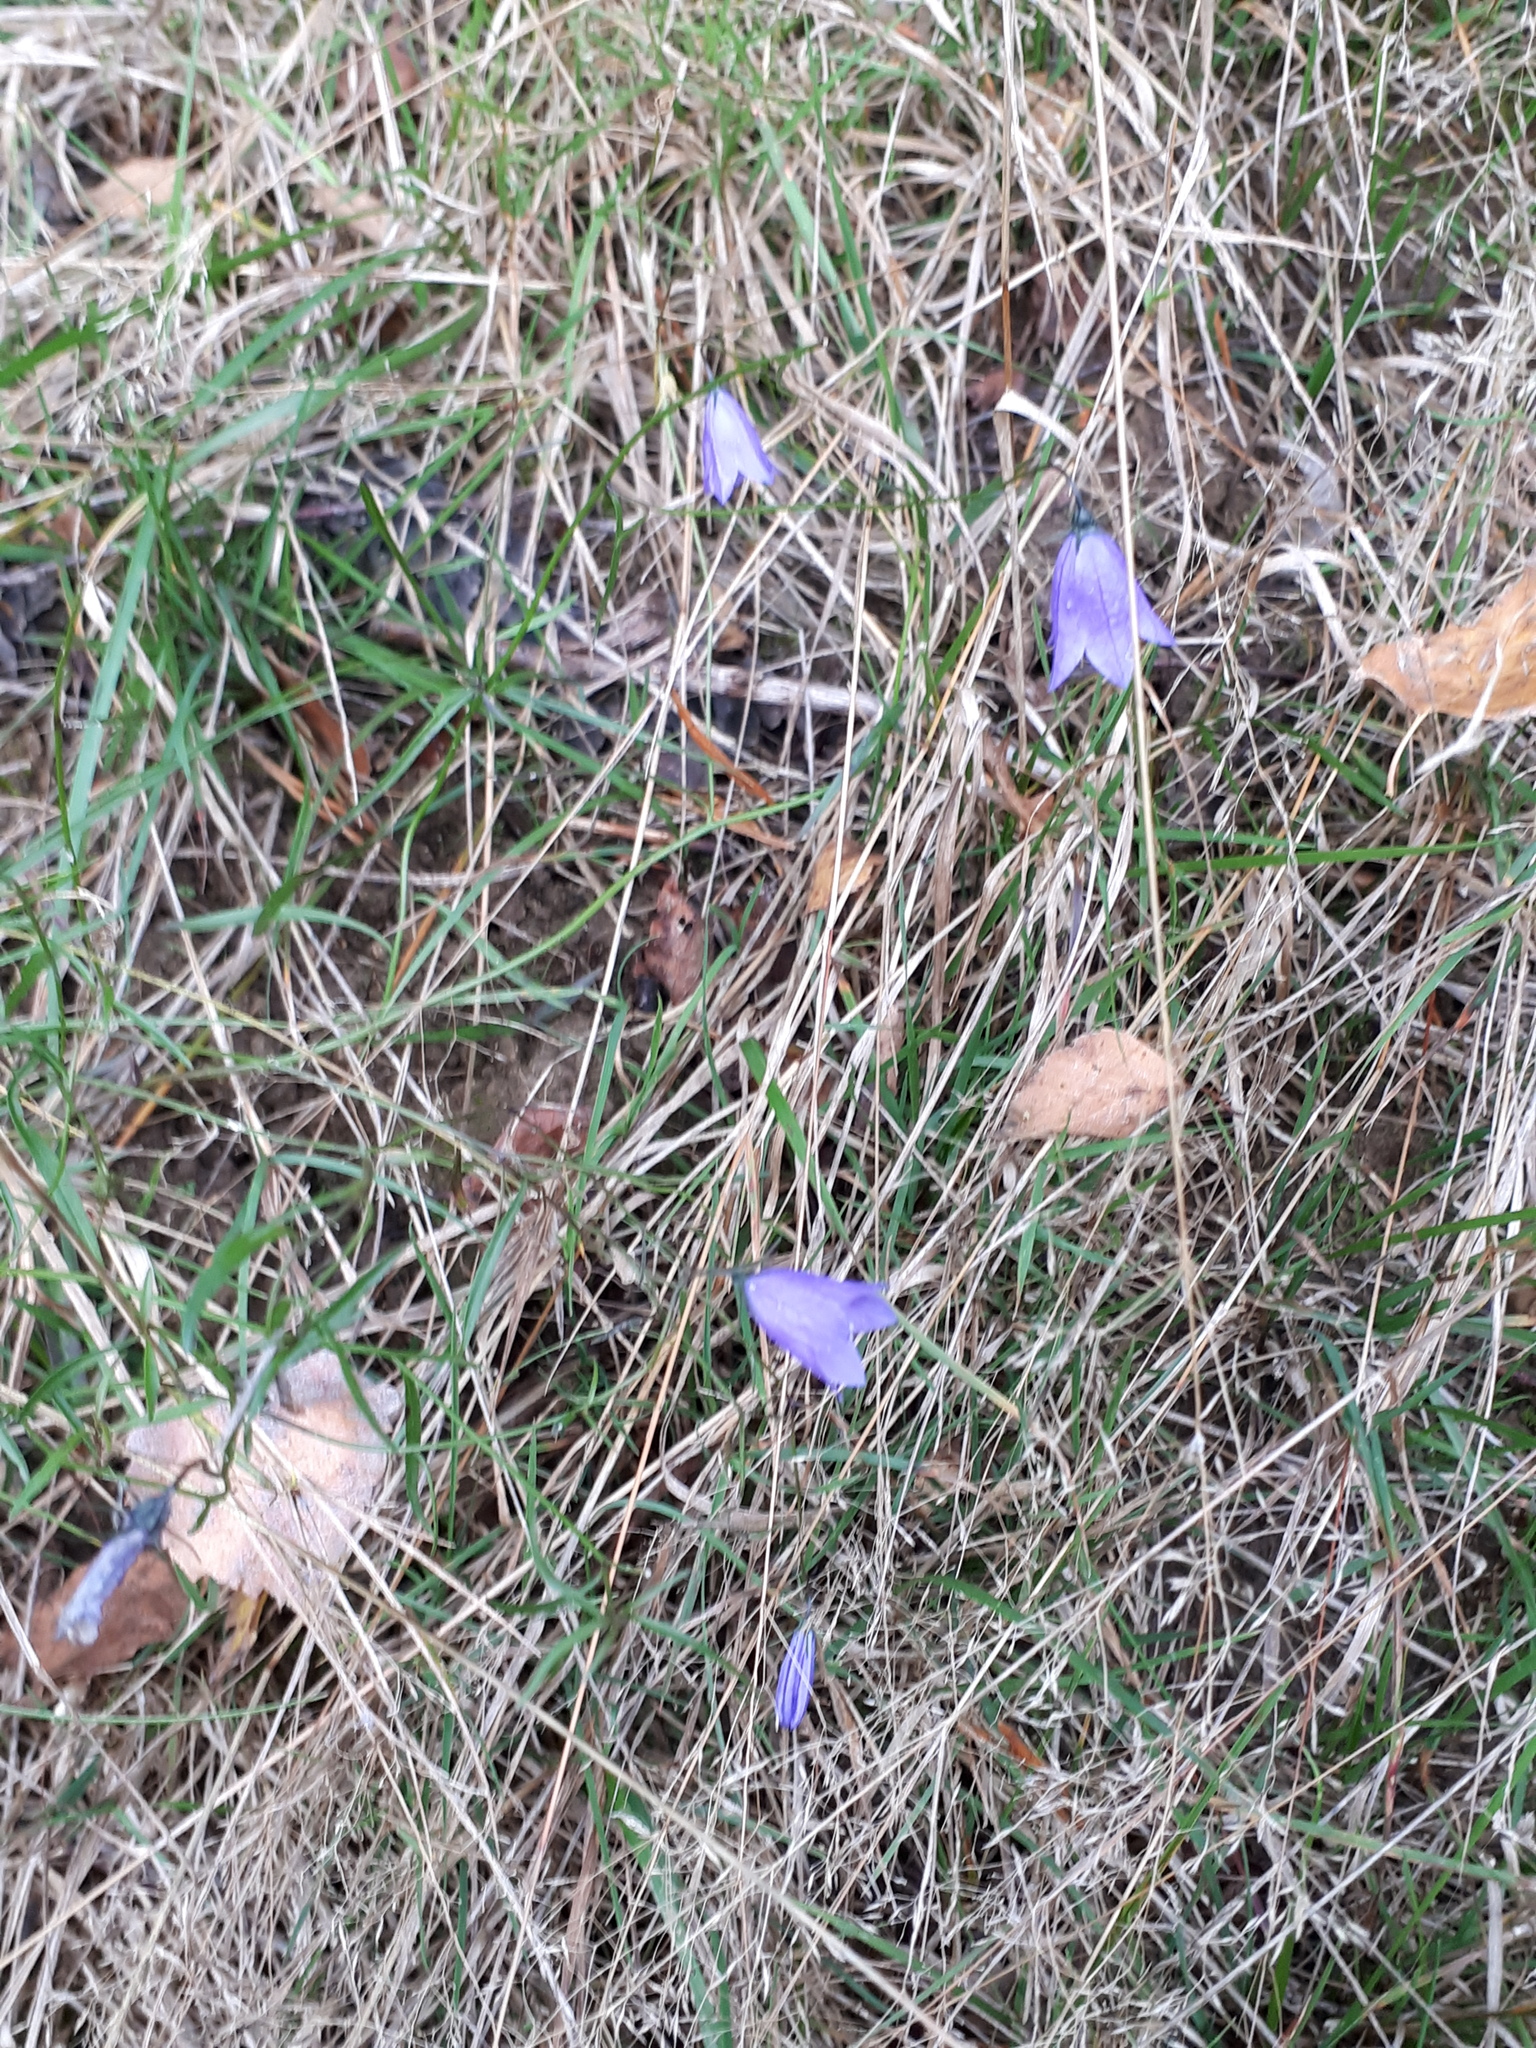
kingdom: Plantae
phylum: Tracheophyta
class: Magnoliopsida
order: Asterales
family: Campanulaceae
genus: Campanula
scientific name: Campanula rotundifolia
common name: Harebell
